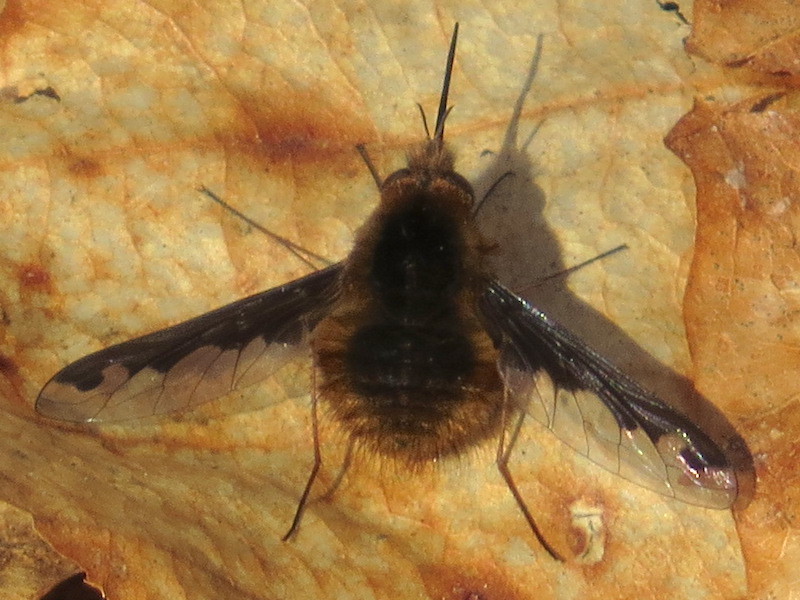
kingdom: Animalia
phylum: Arthropoda
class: Insecta
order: Diptera
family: Bombyliidae
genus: Bombylius
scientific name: Bombylius major
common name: Bee fly
